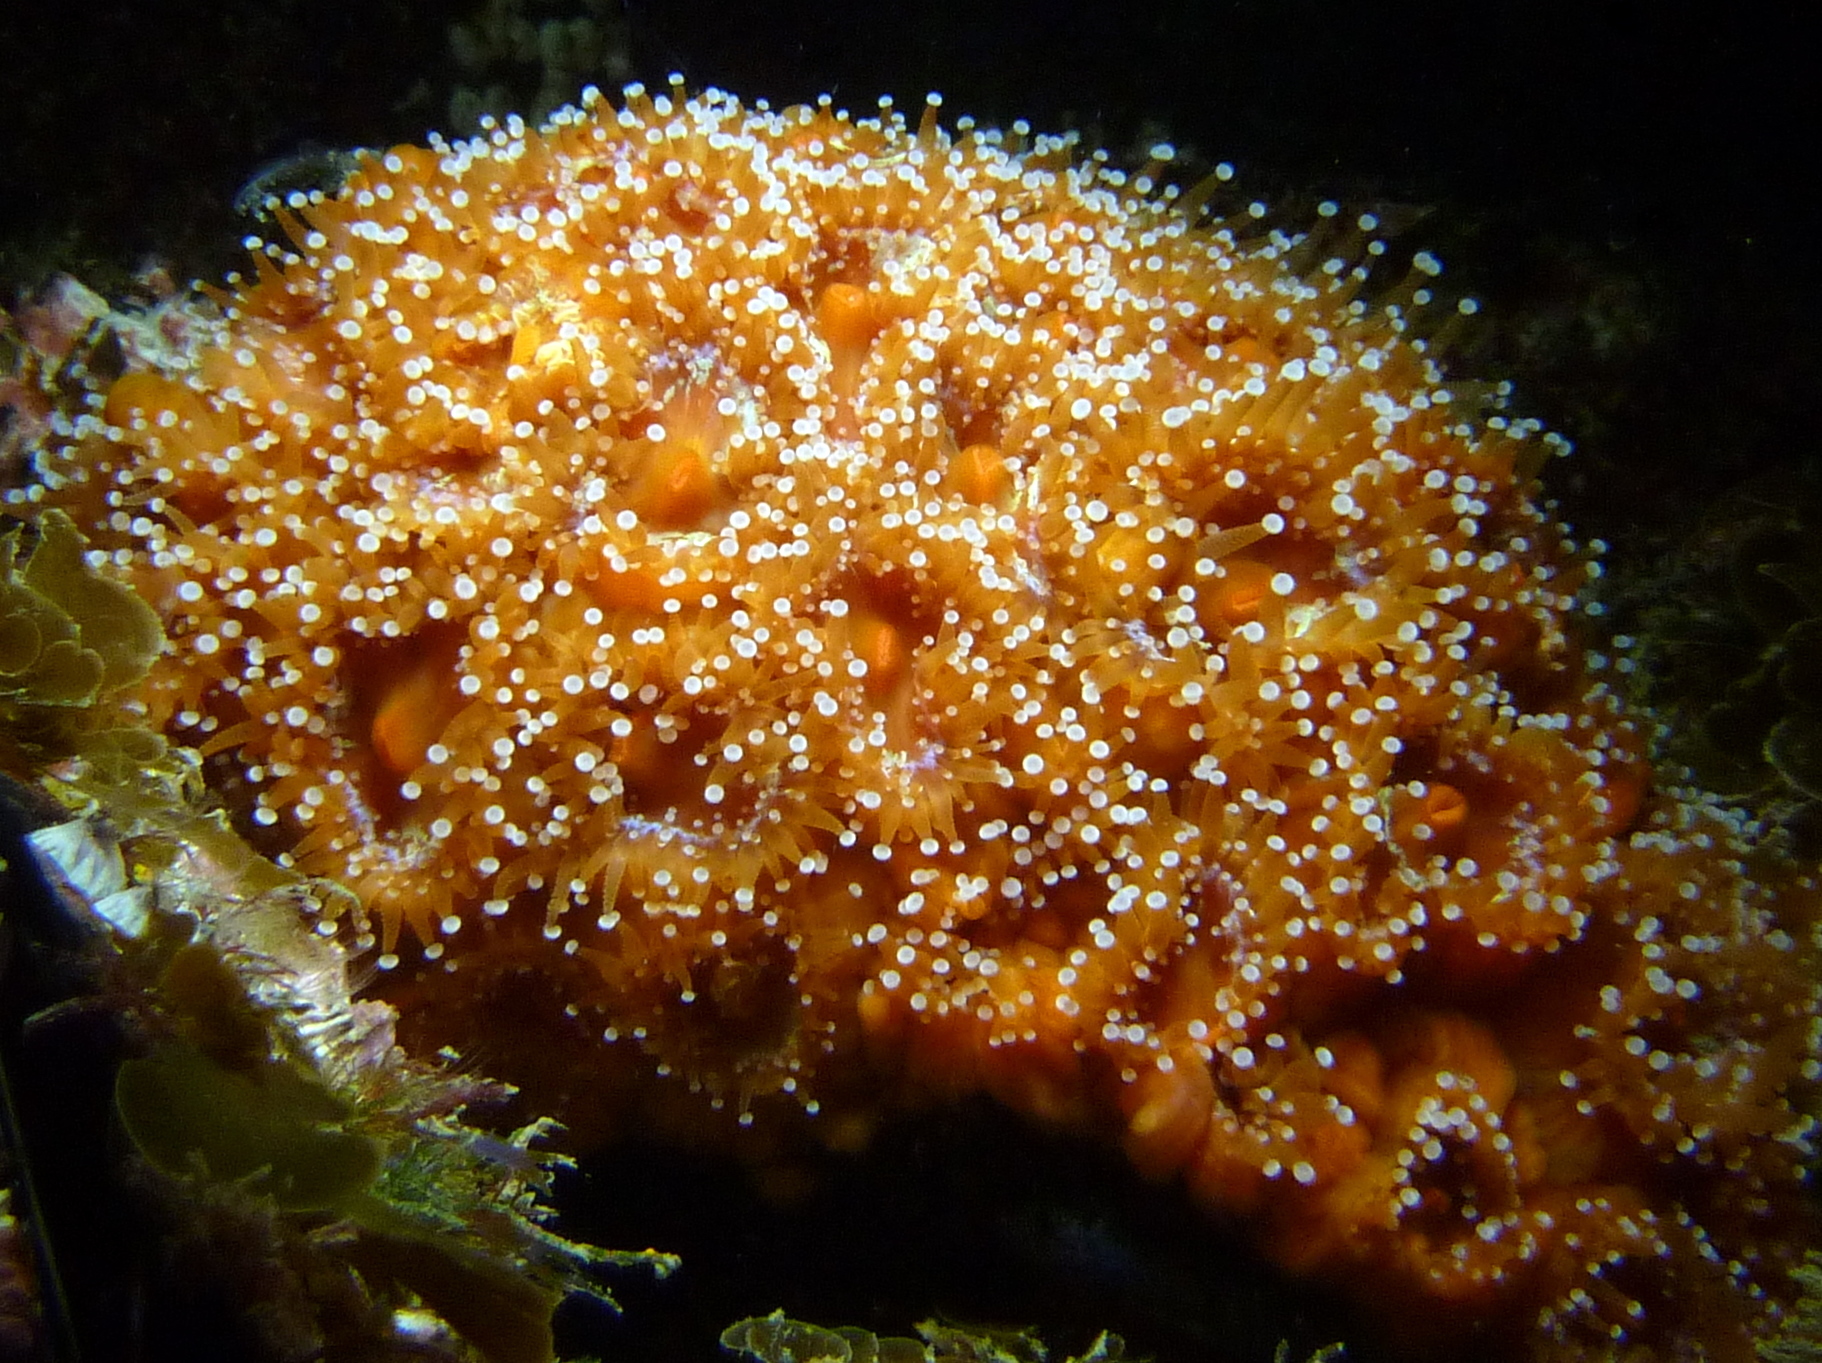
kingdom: Animalia
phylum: Cnidaria
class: Anthozoa
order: Corallimorpharia
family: Corallimorphidae
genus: Corynactis
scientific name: Corynactis australis
